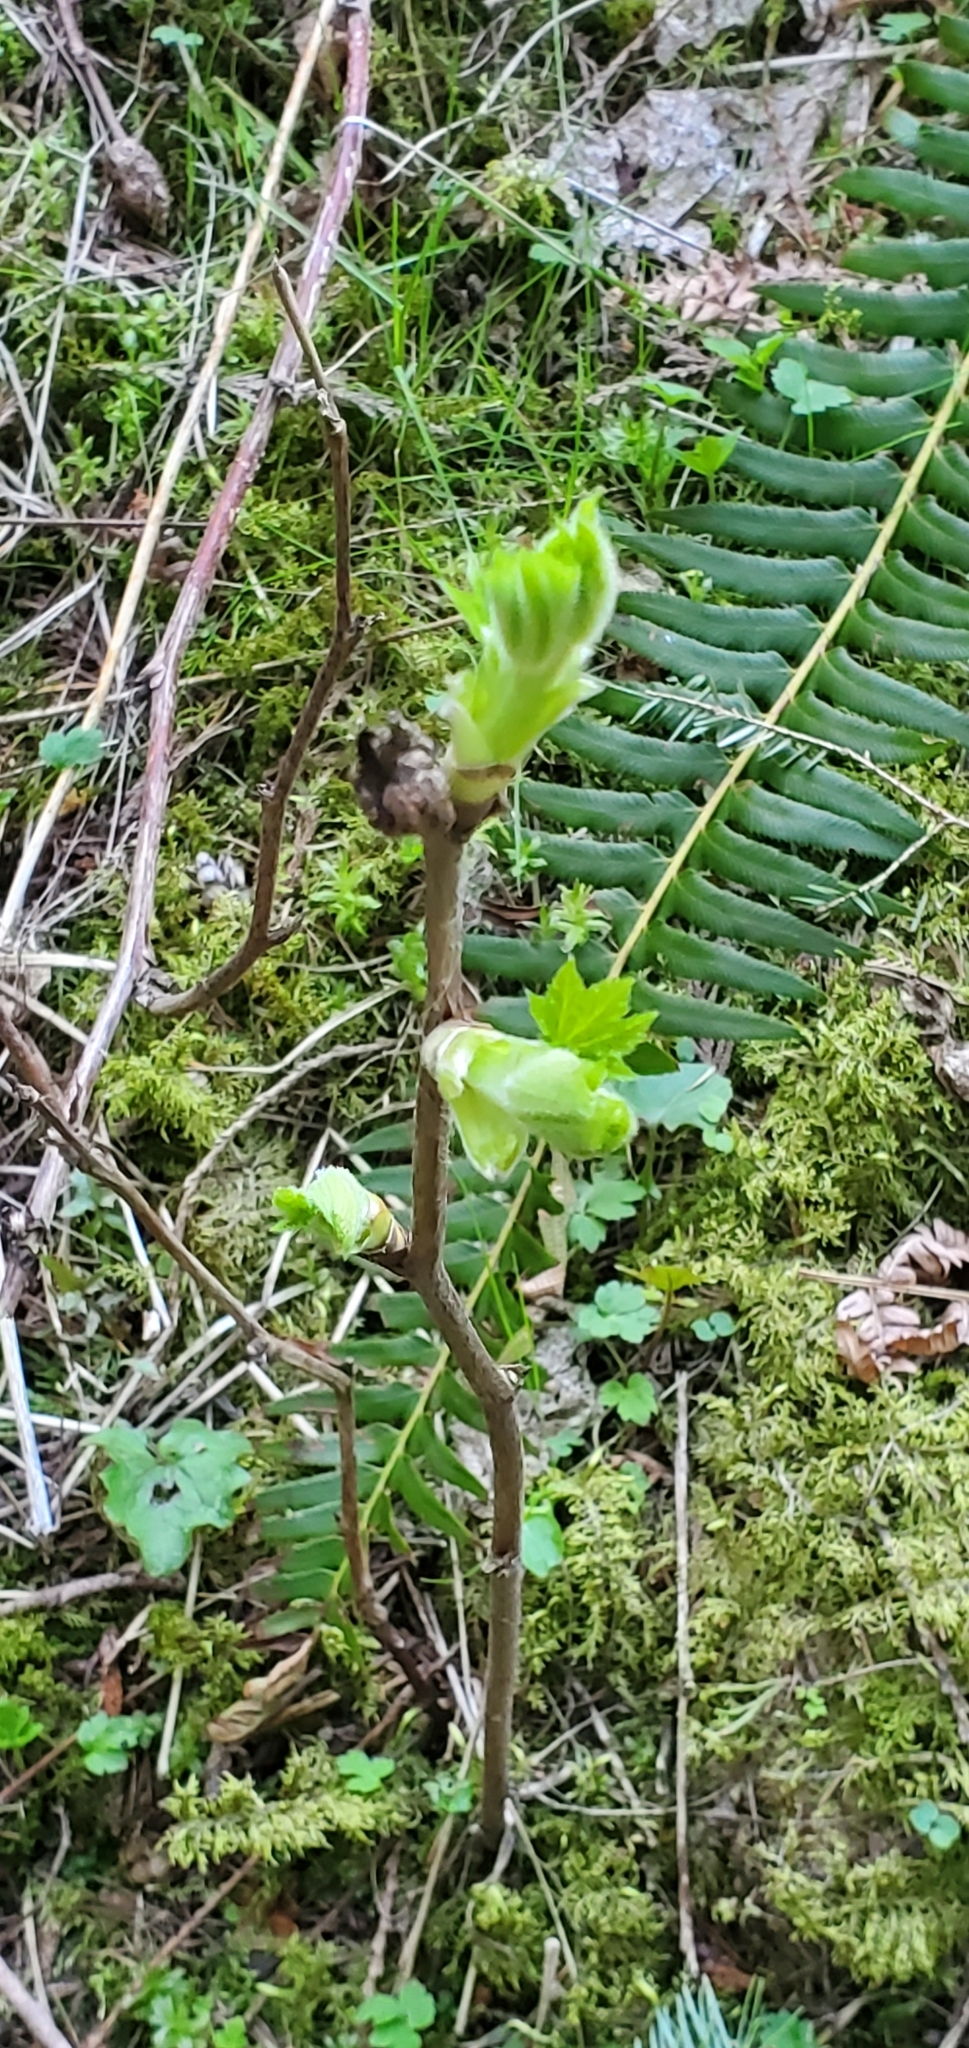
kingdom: Plantae
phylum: Tracheophyta
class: Magnoliopsida
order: Apiales
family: Araliaceae
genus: Oplopanax
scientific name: Oplopanax horridus
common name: Devil's walking-stick
